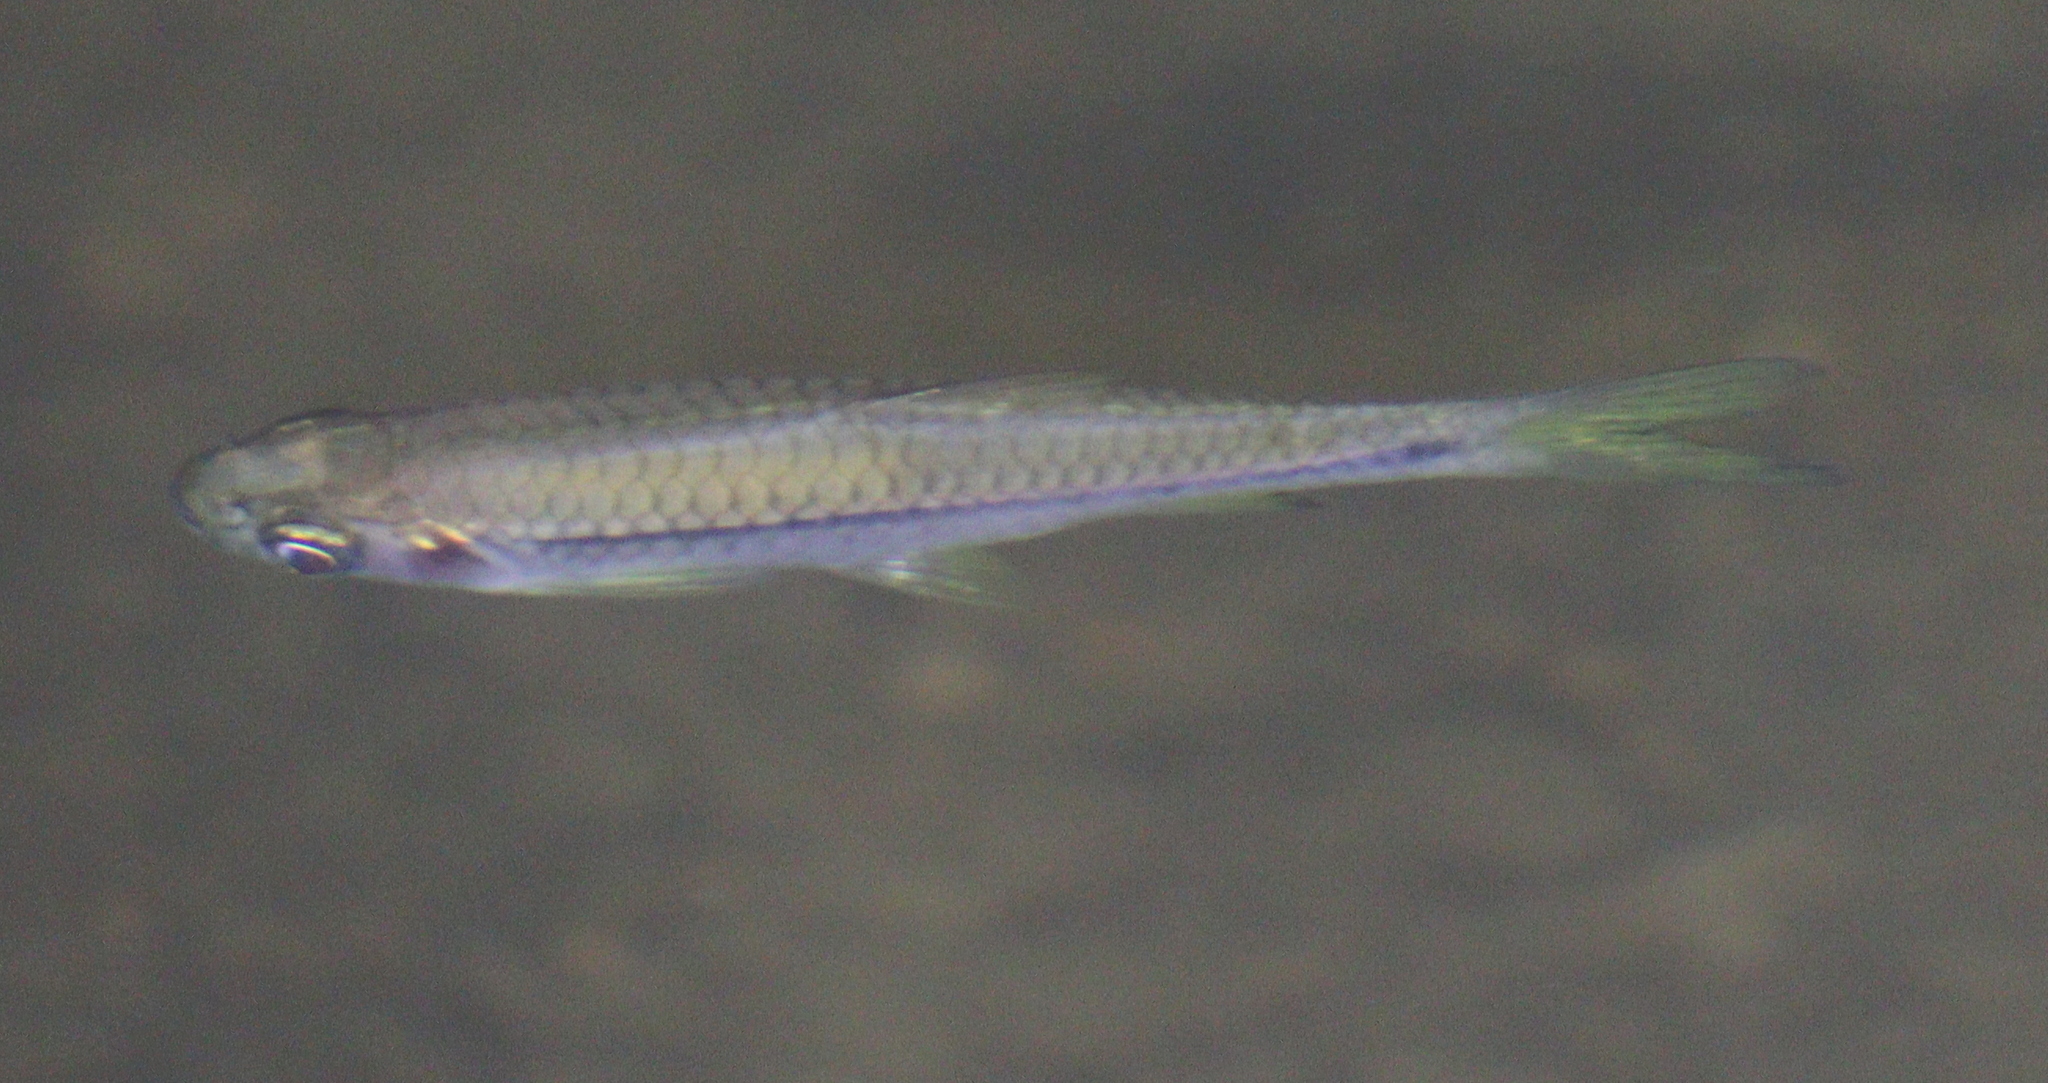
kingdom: Animalia
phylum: Chordata
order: Cypriniformes
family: Cyprinidae
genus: Rasbora
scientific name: Rasbora paviana
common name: Sidestripe rasbora
